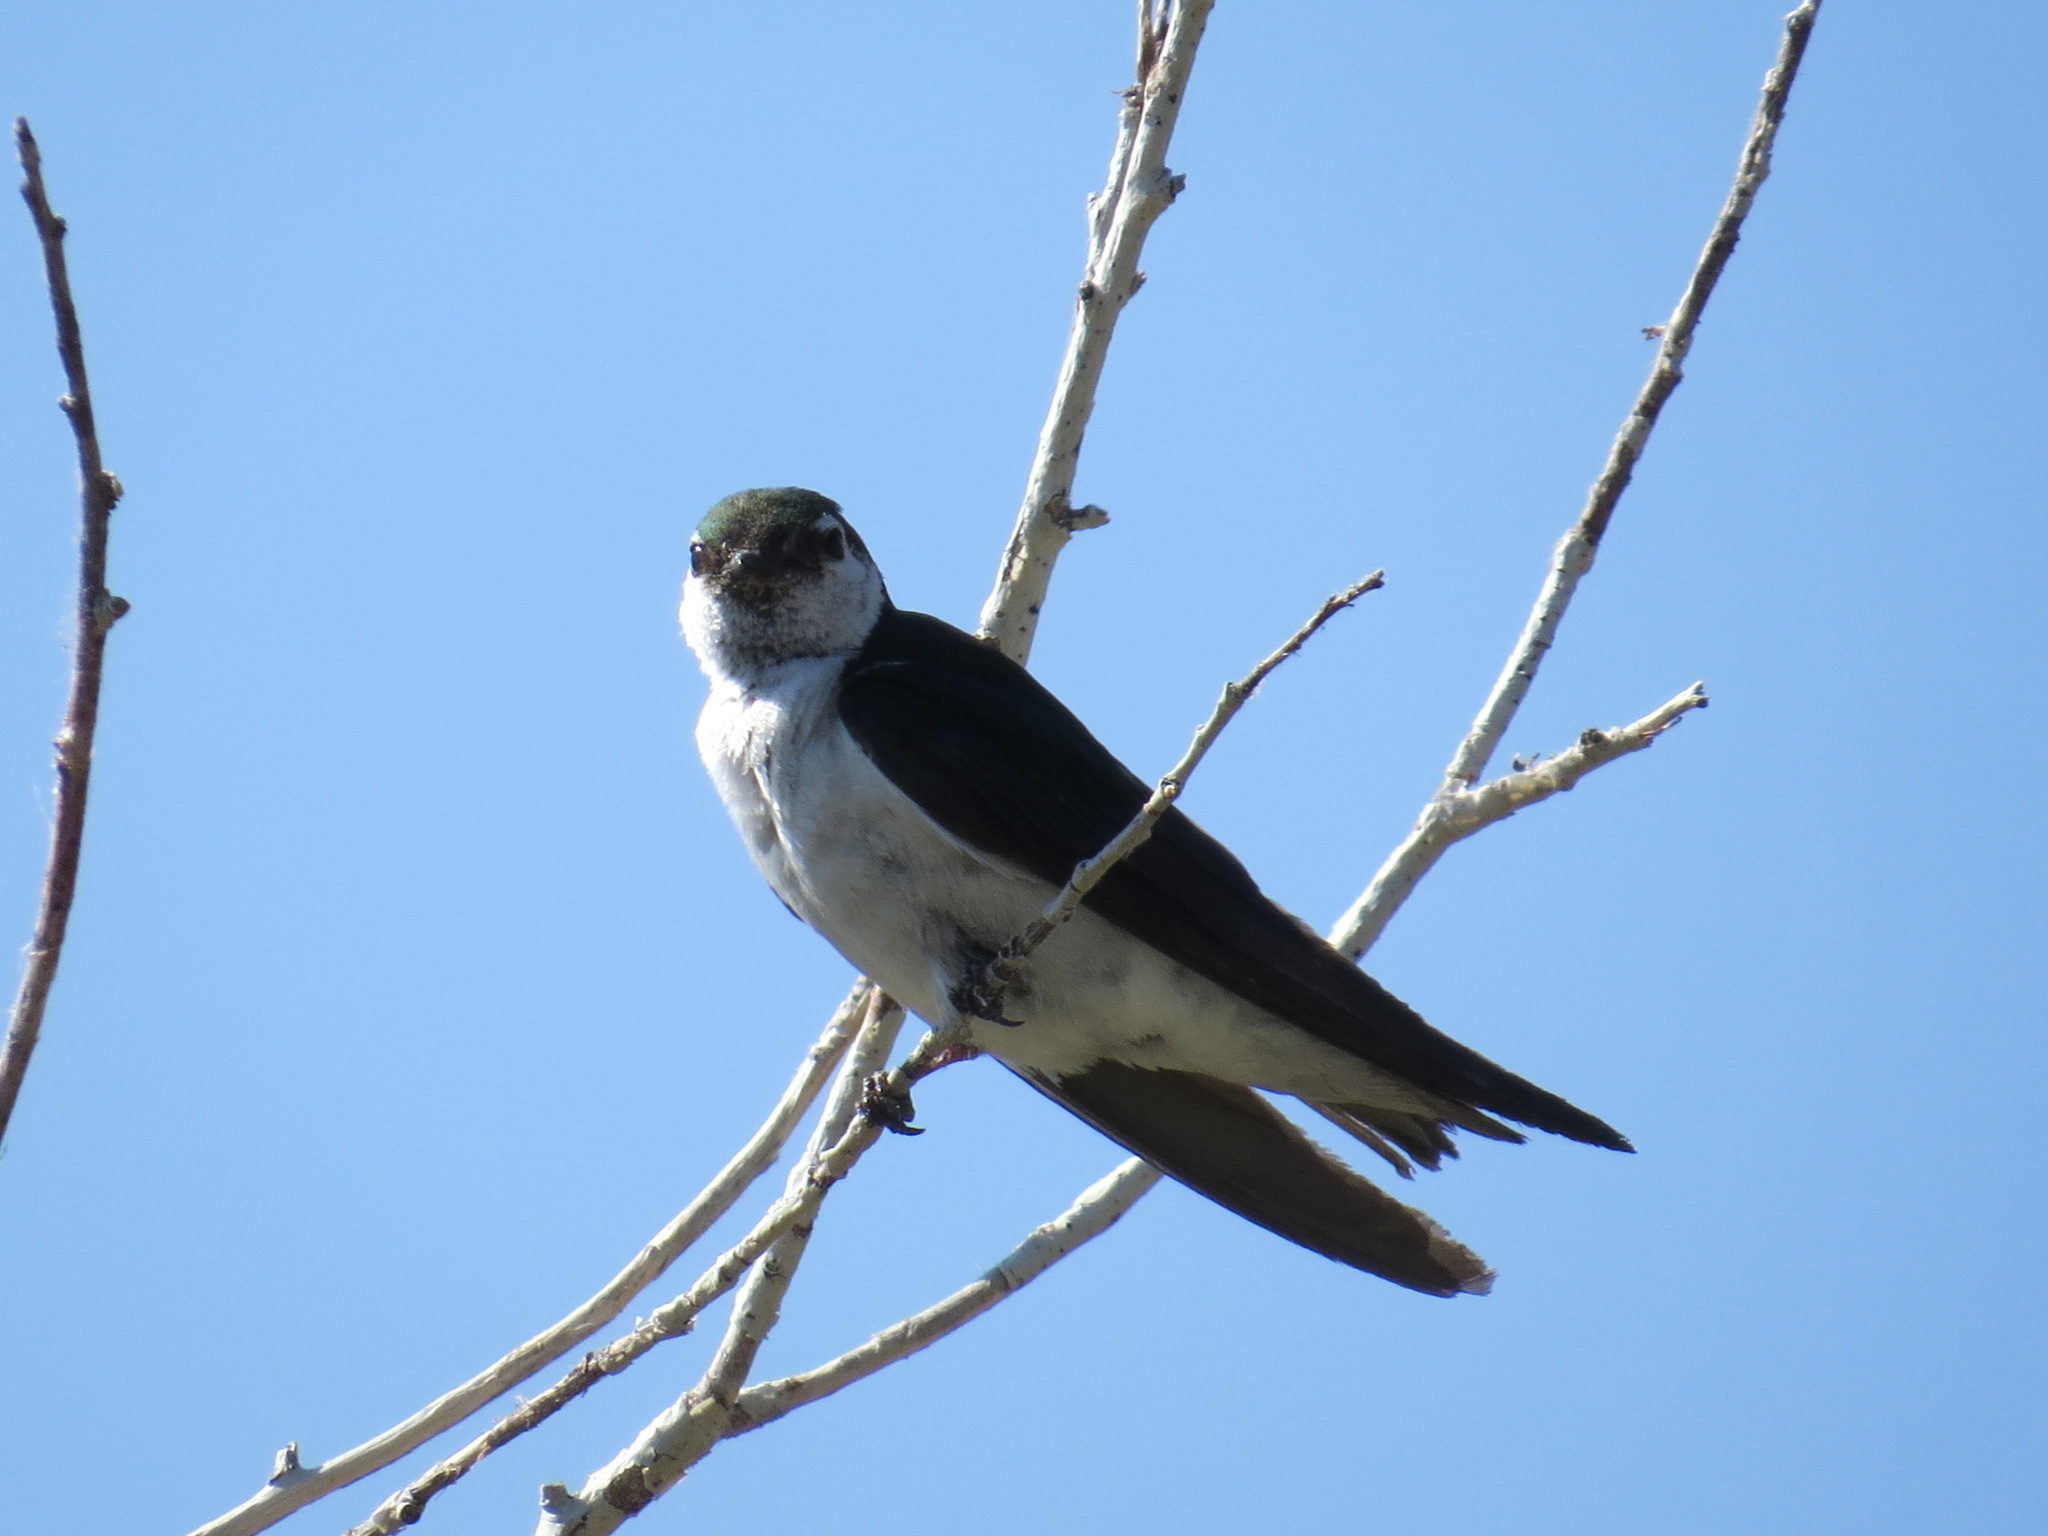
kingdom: Animalia
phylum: Chordata
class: Aves
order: Passeriformes
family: Hirundinidae
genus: Tachycineta
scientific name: Tachycineta thalassina
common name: Violet-green swallow
